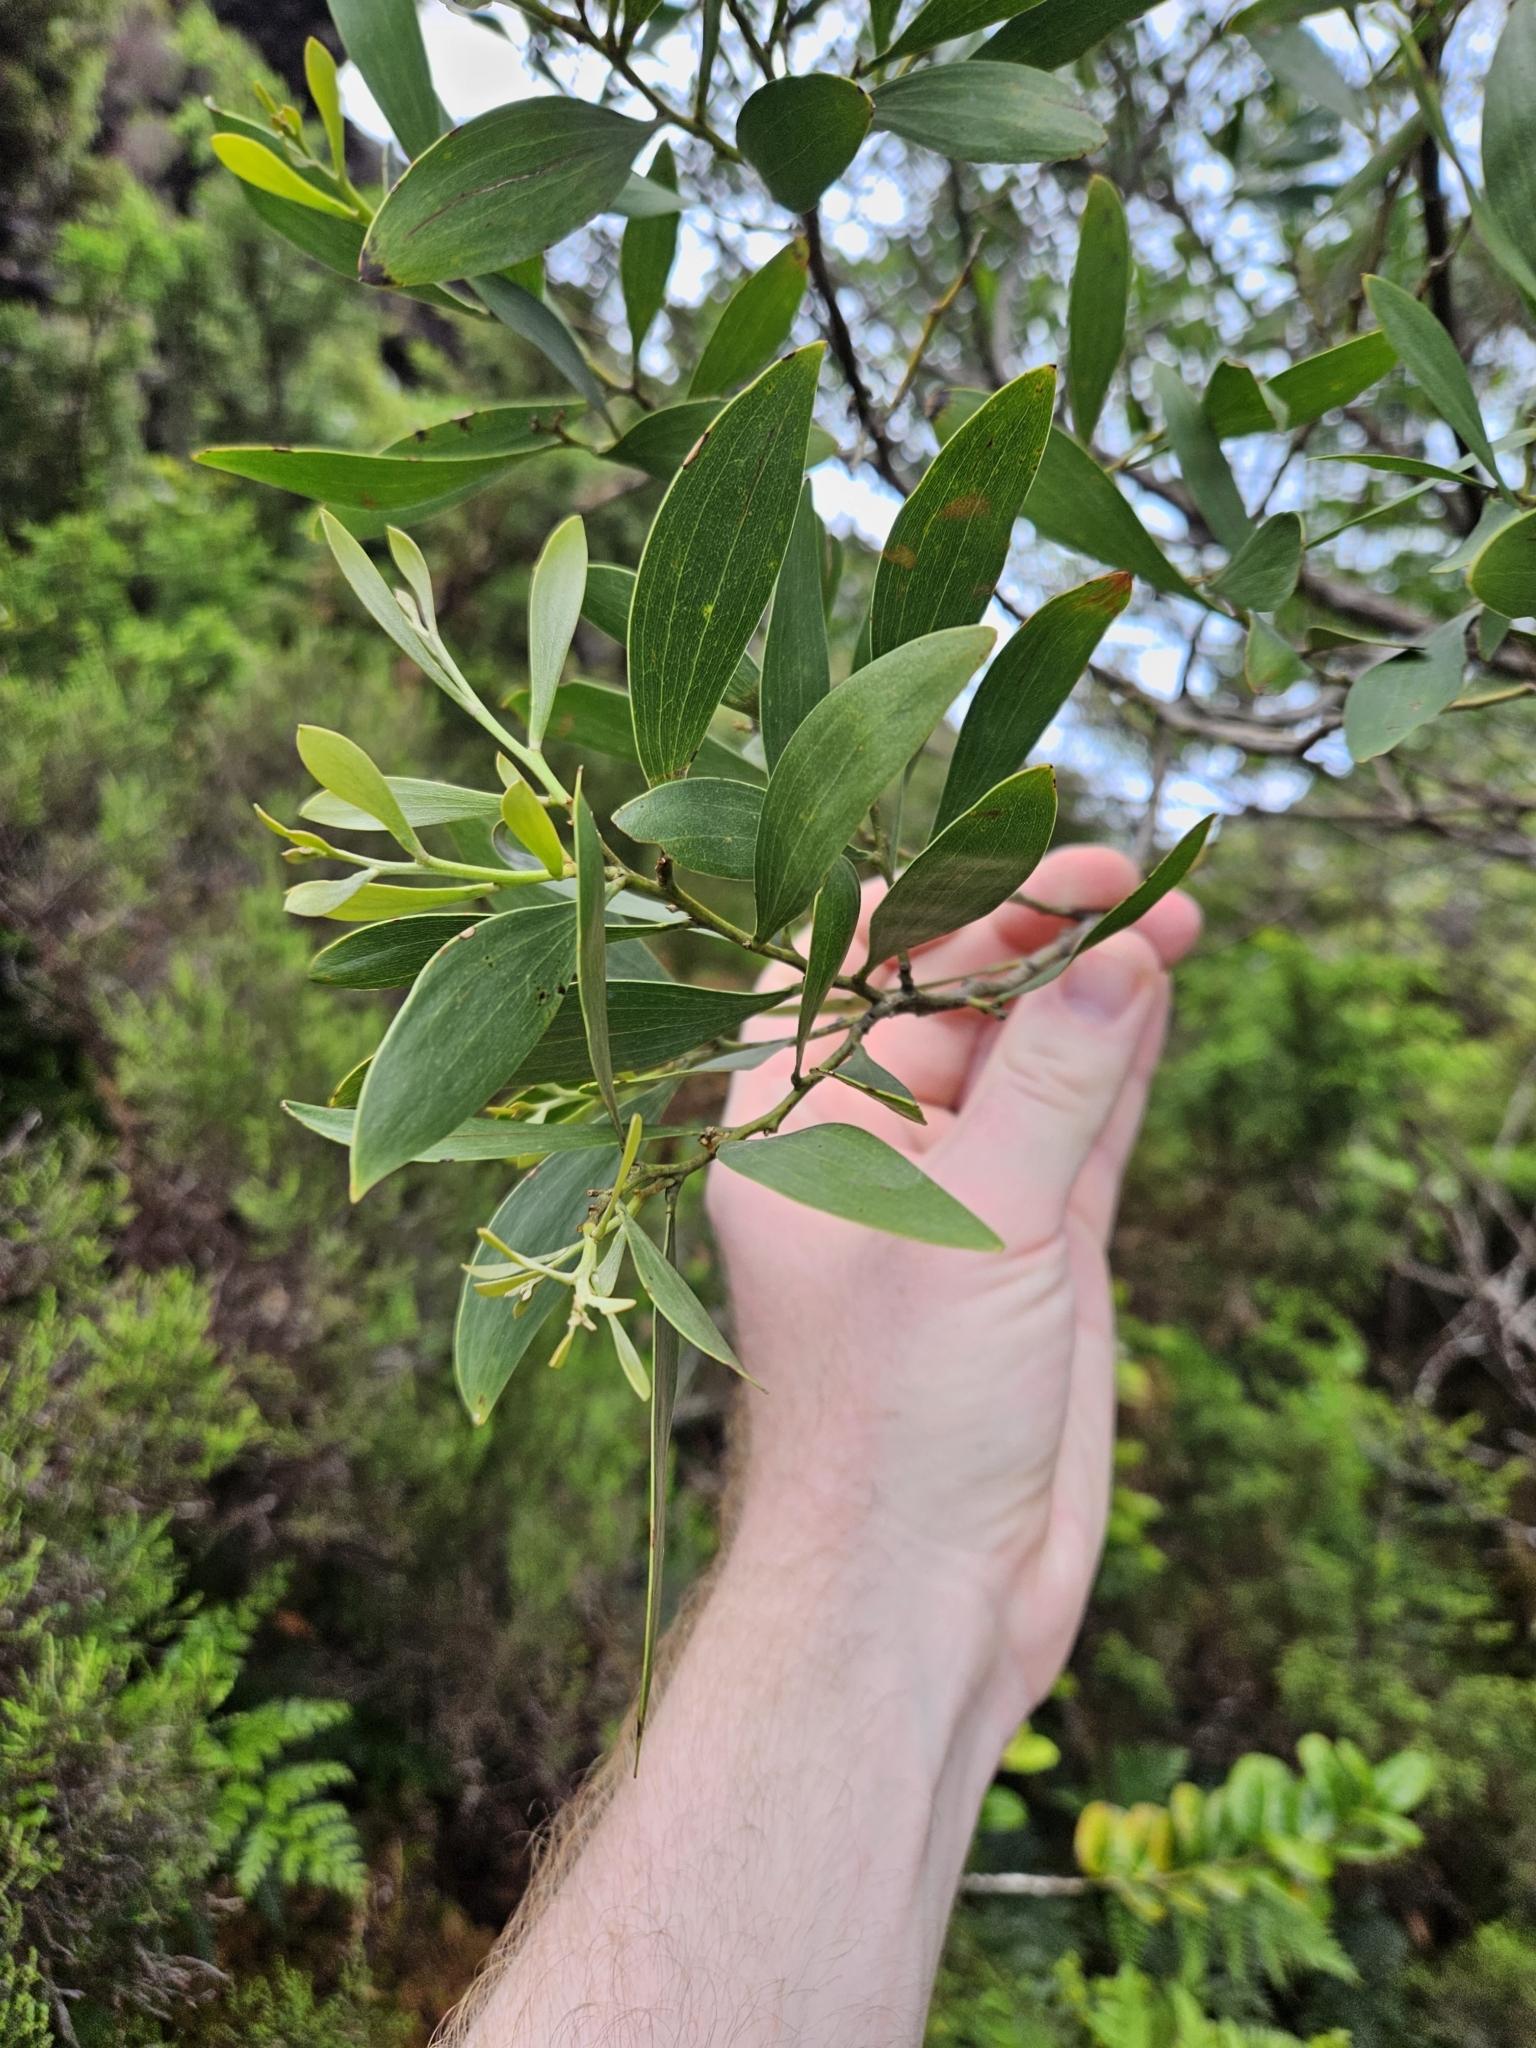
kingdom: Plantae
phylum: Tracheophyta
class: Magnoliopsida
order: Fabales
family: Fabaceae
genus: Acacia
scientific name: Acacia melanoxylon
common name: Blackwood
